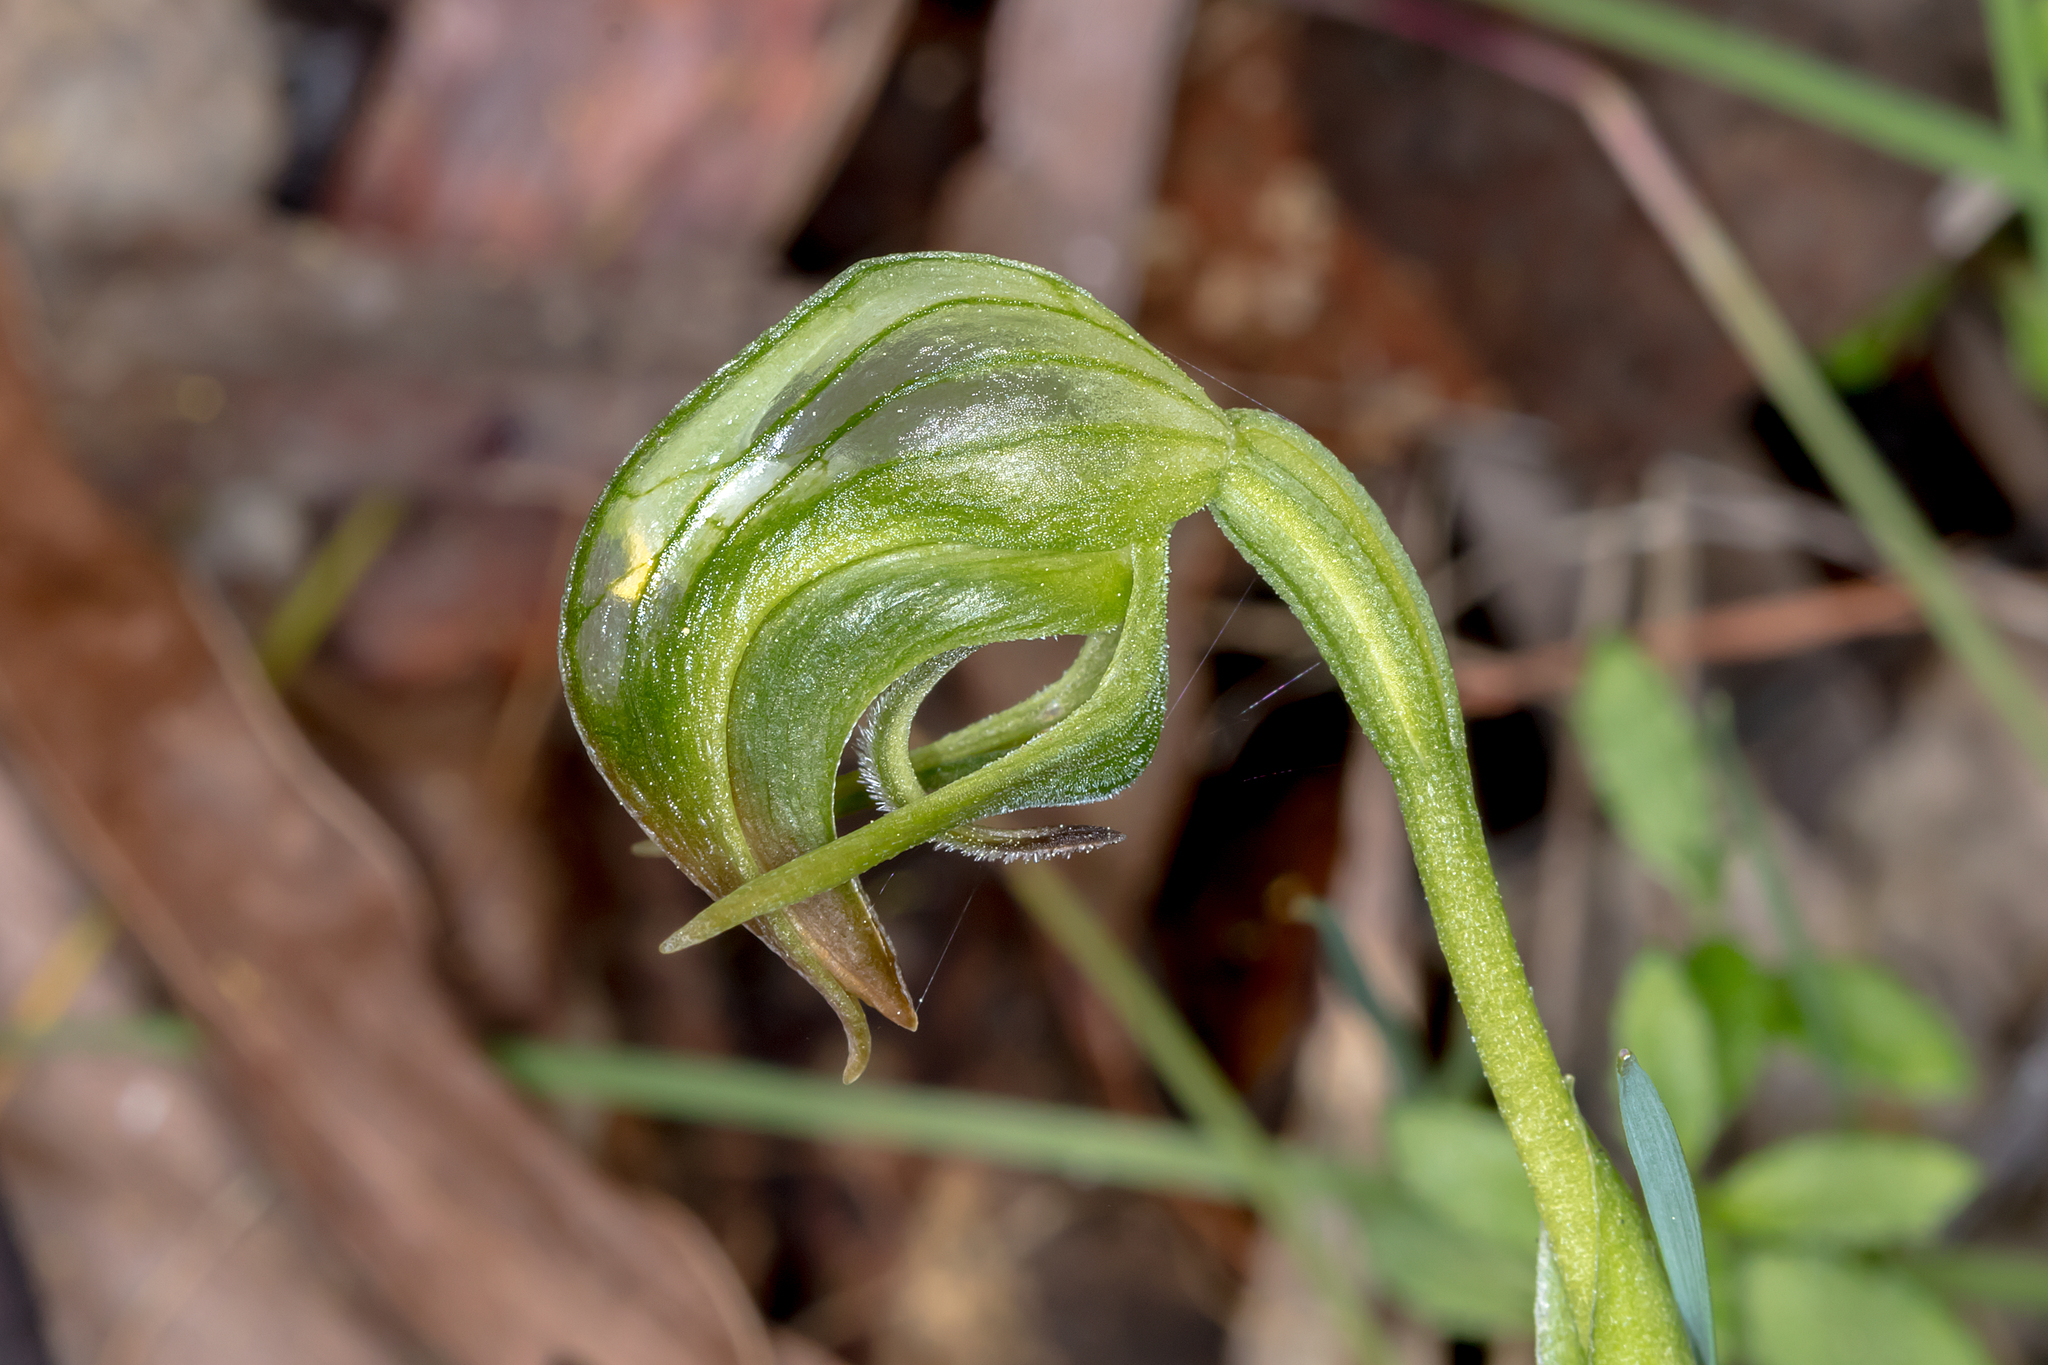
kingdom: Plantae
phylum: Tracheophyta
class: Liliopsida
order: Asparagales
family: Orchidaceae
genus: Pterostylis
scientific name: Pterostylis nutans
